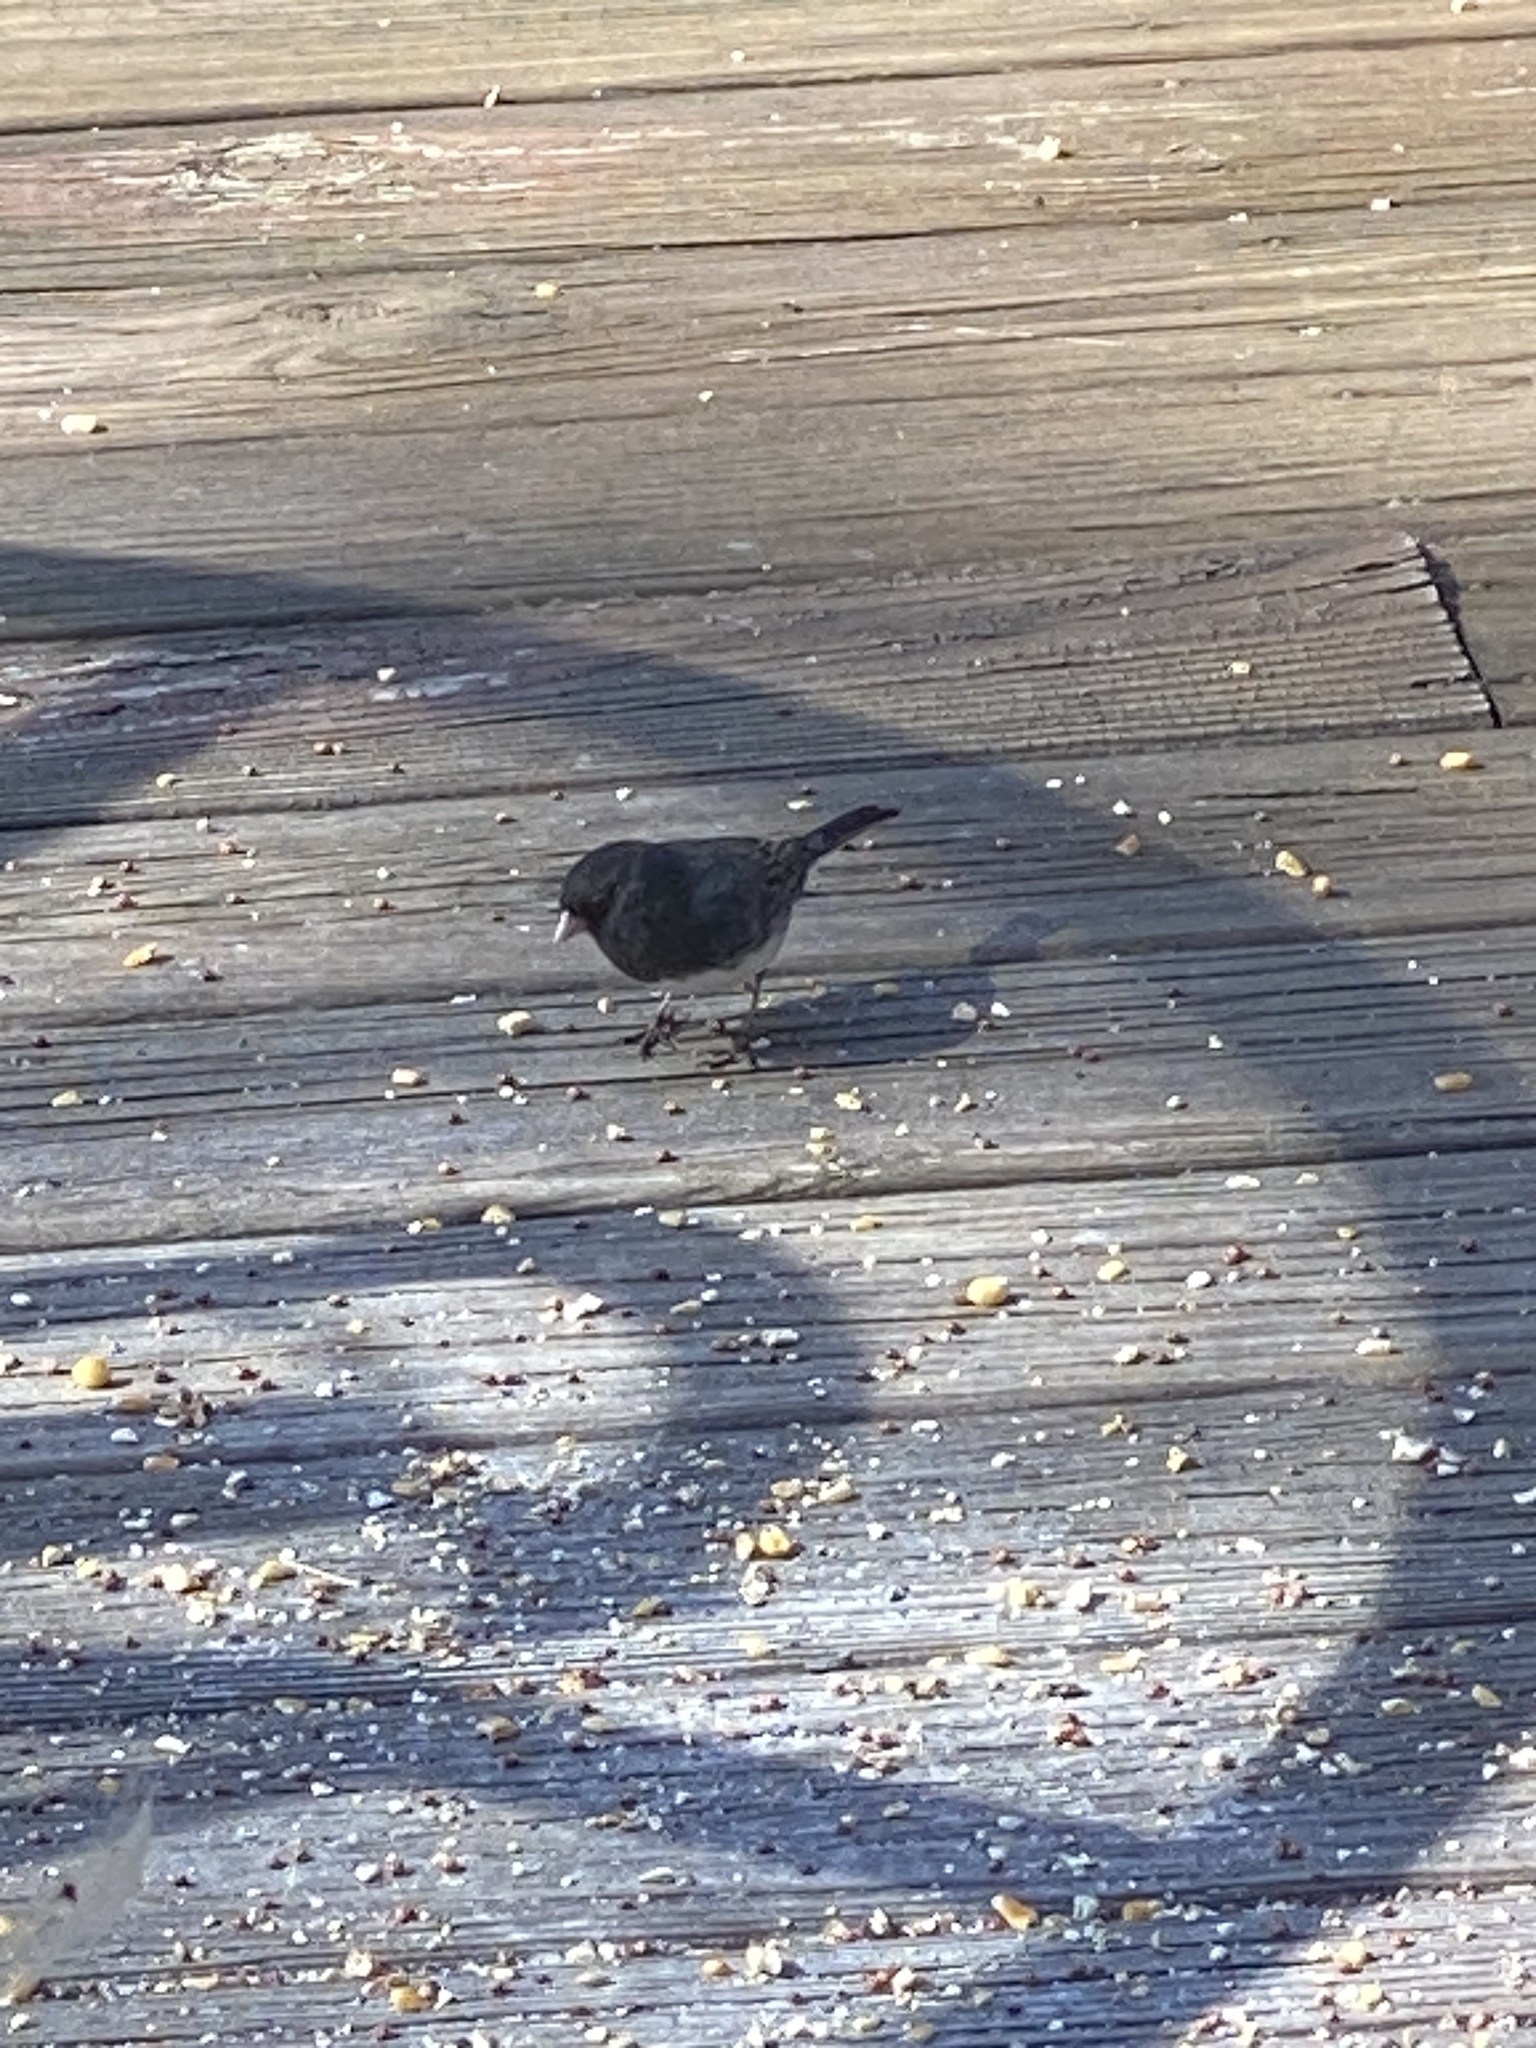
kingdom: Animalia
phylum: Chordata
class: Aves
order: Passeriformes
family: Passerellidae
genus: Junco
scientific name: Junco hyemalis
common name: Dark-eyed junco
